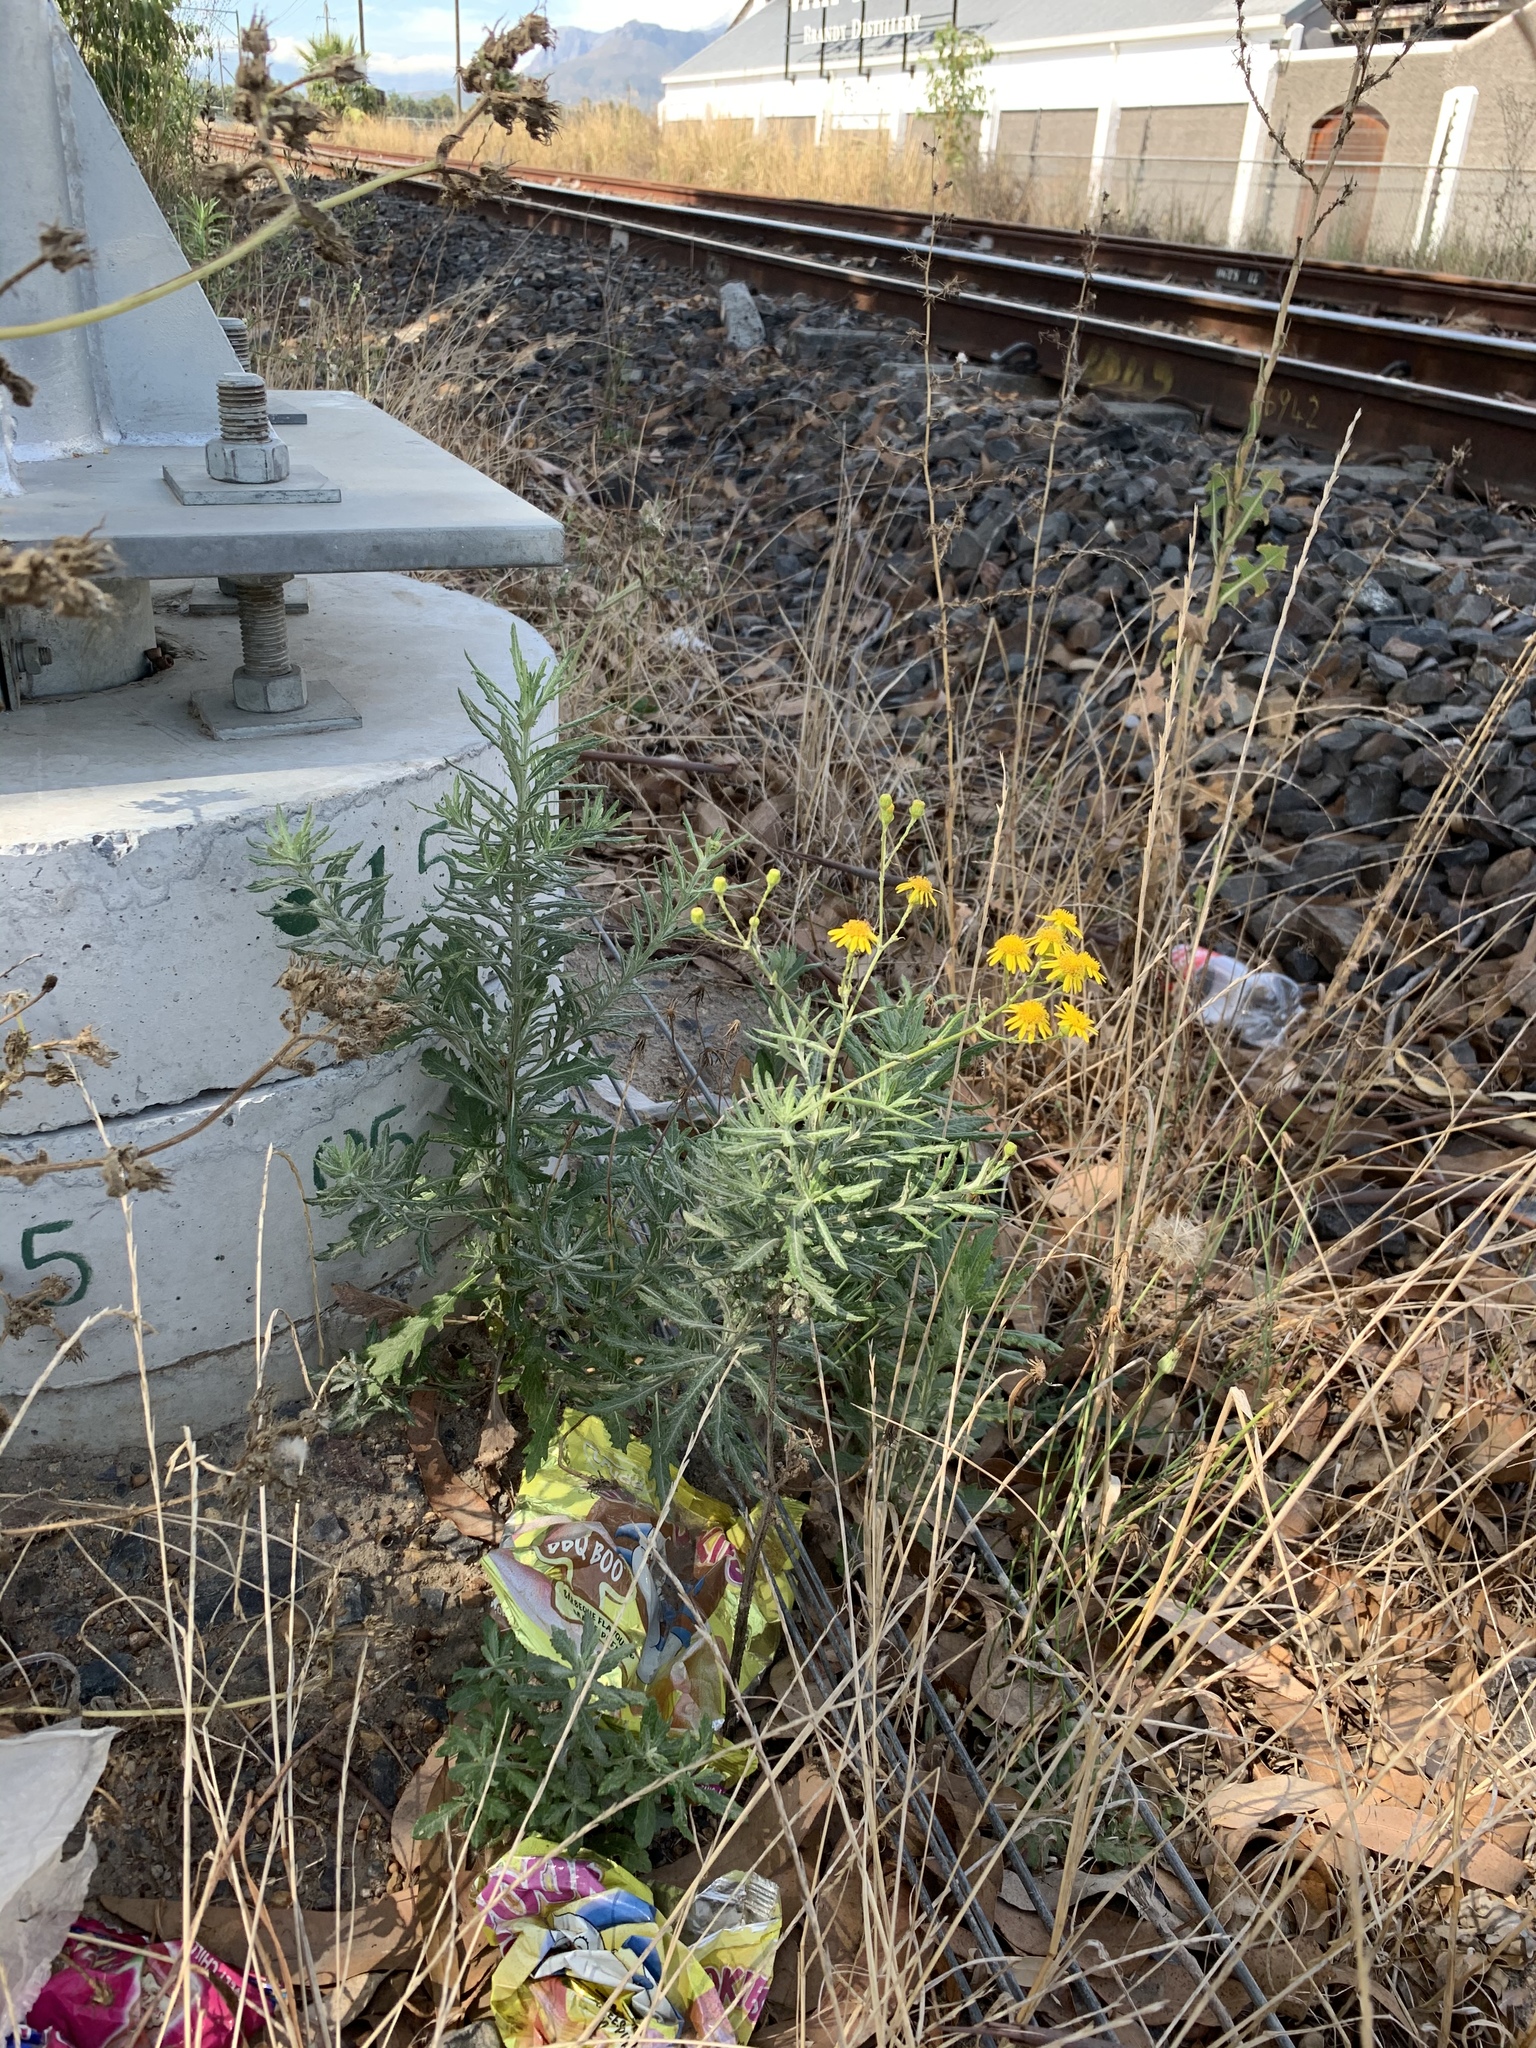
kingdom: Plantae
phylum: Tracheophyta
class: Magnoliopsida
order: Asterales
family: Asteraceae
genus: Senecio
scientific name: Senecio pterophorus
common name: Shoddy ragwort
